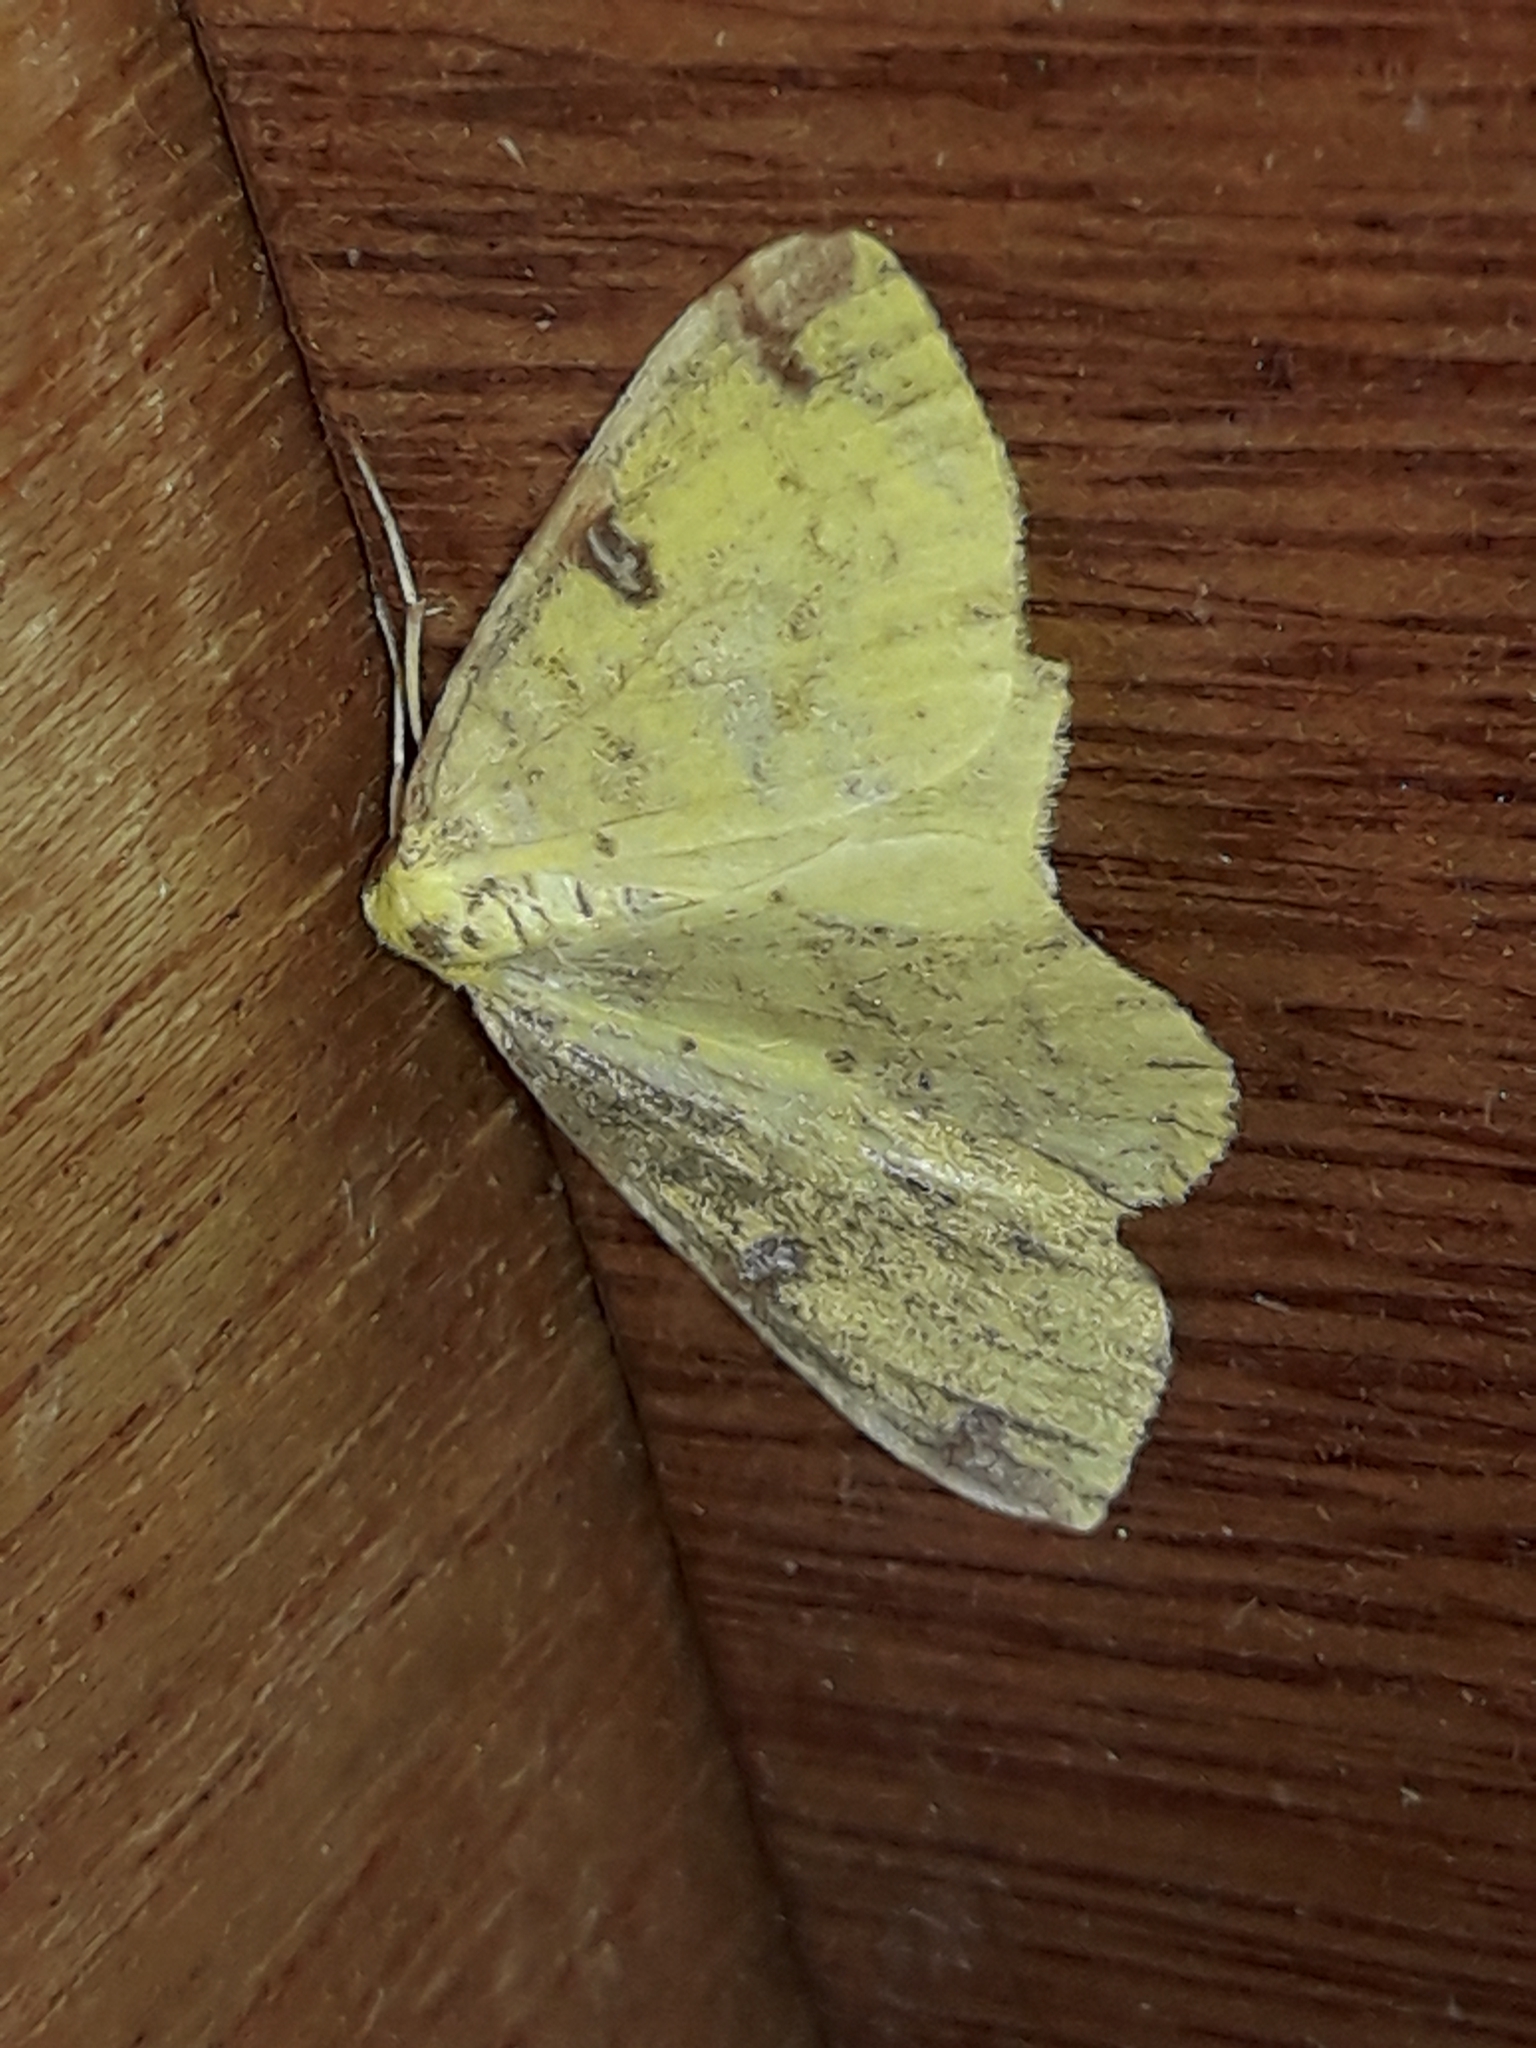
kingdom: Animalia
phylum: Arthropoda
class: Insecta
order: Lepidoptera
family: Geometridae
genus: Opisthograptis
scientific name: Opisthograptis luteolata
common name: Brimstone moth
